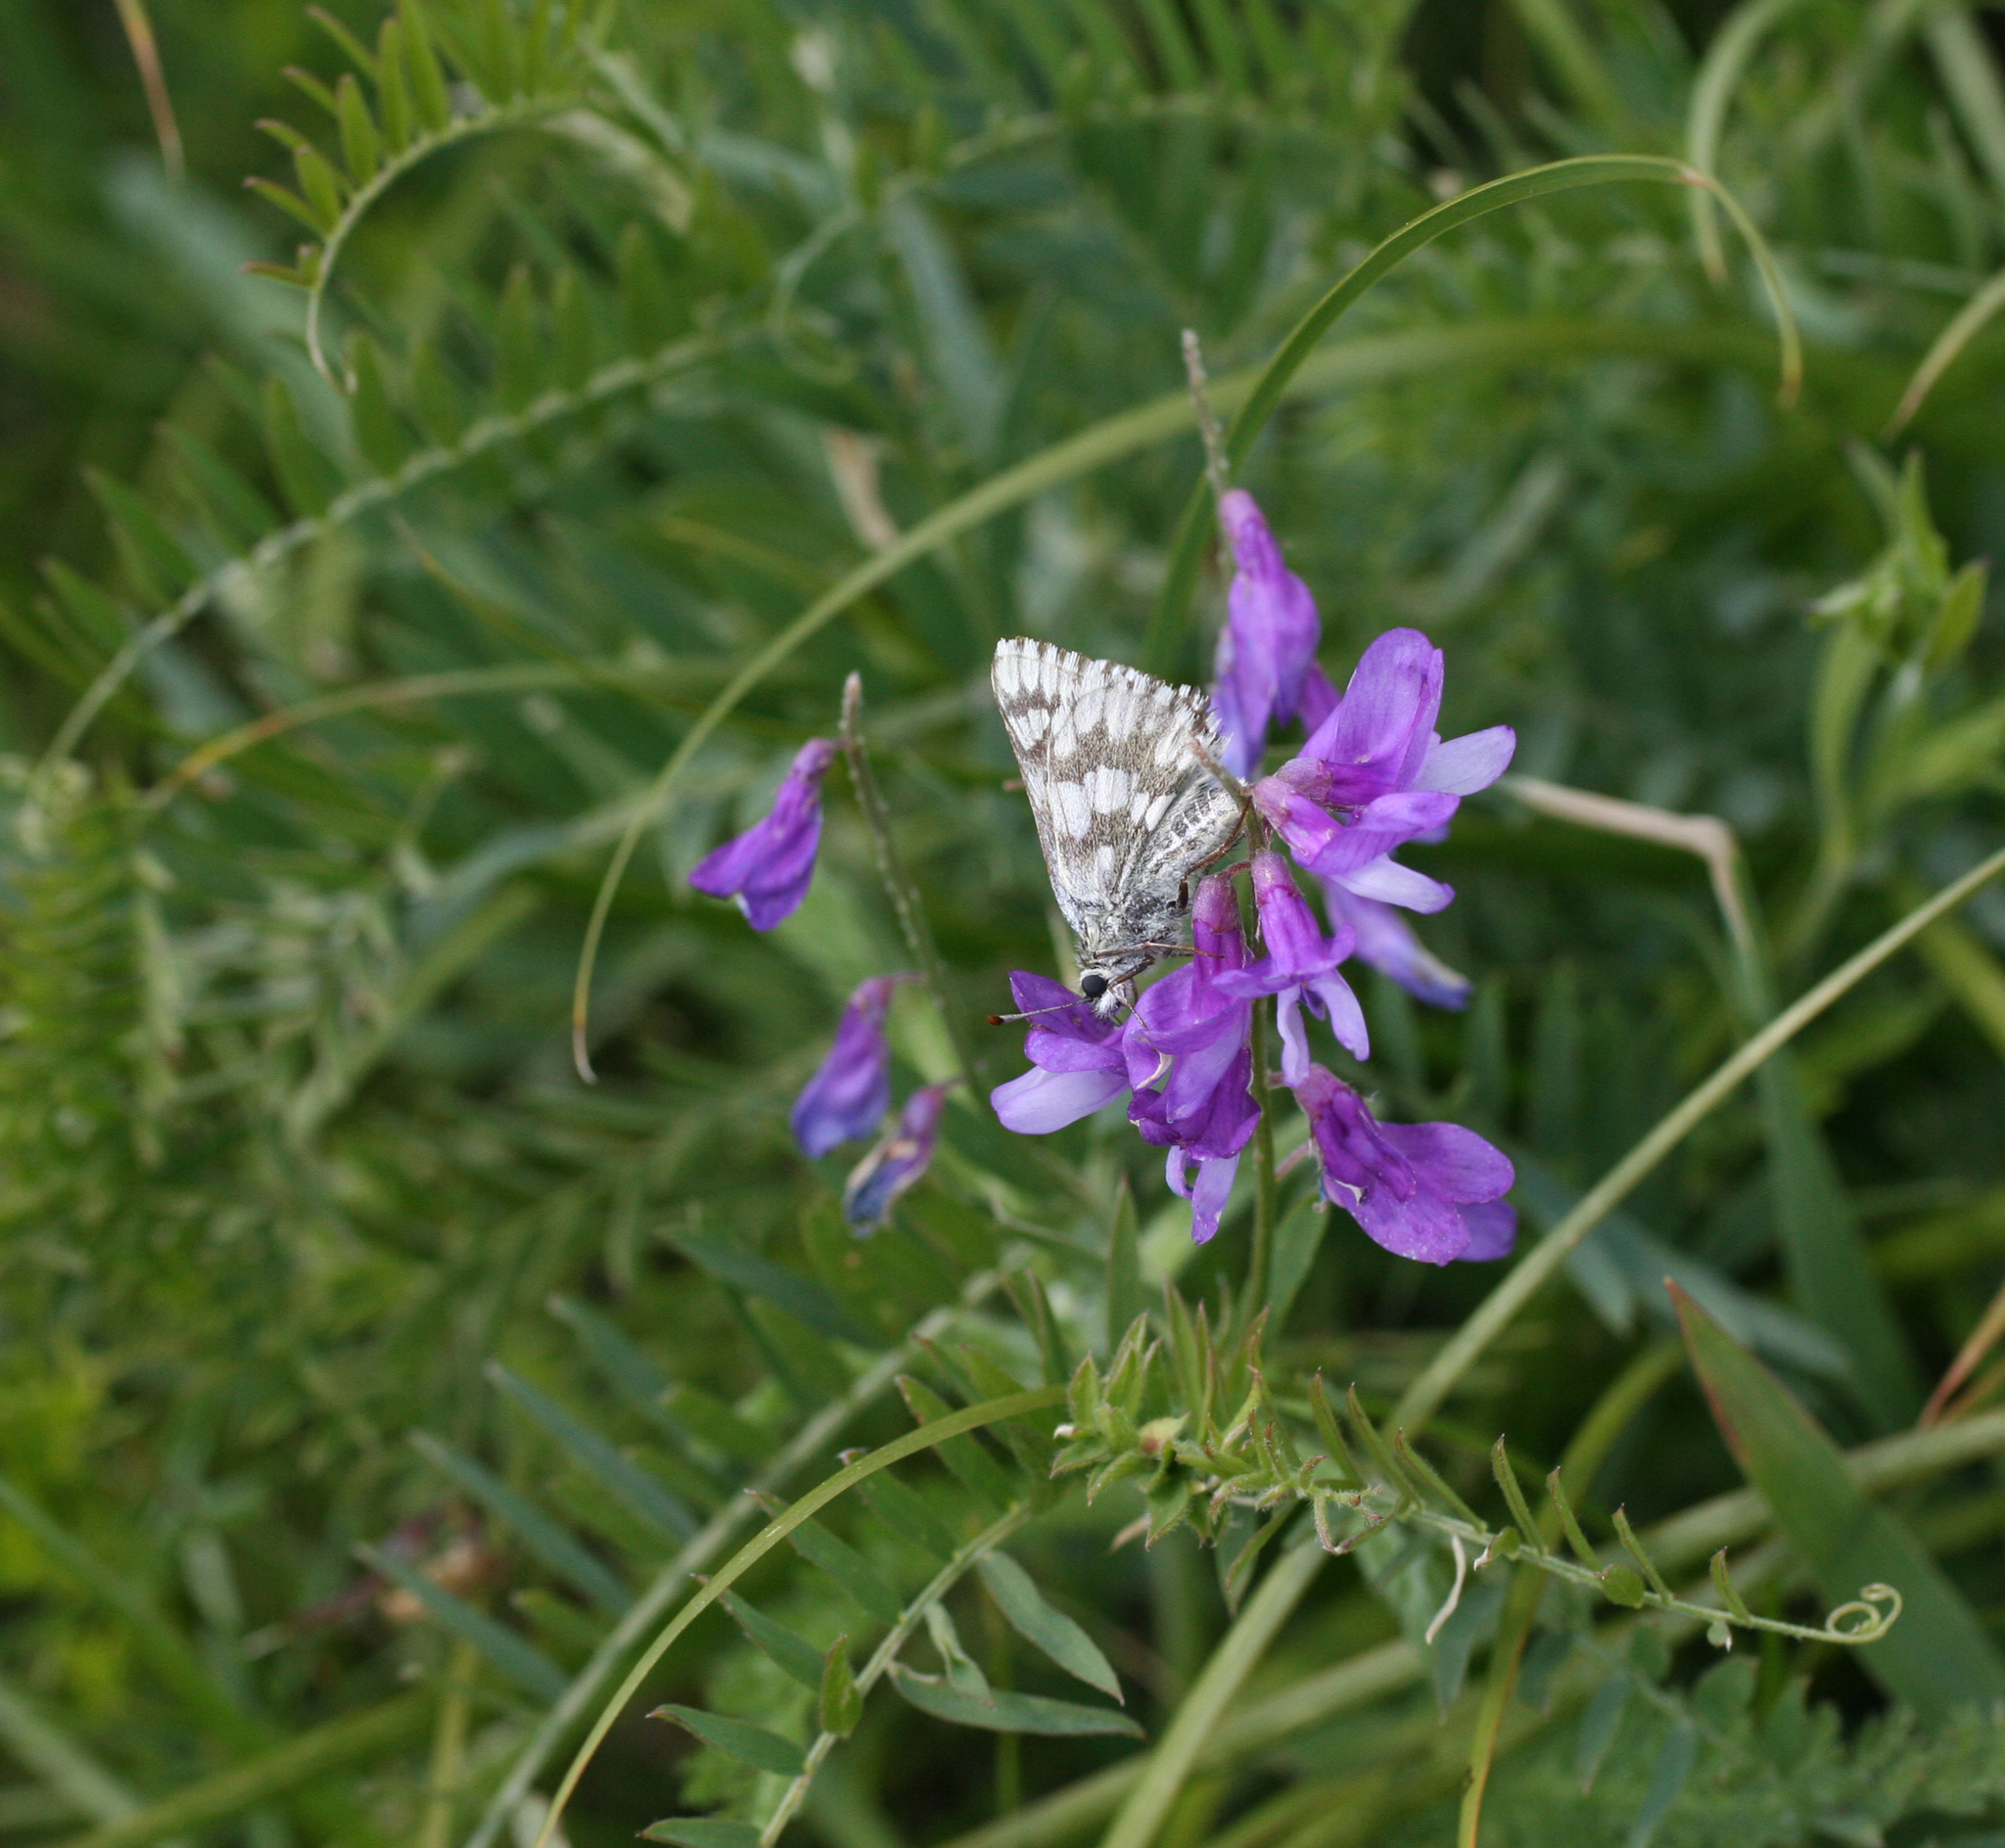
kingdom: Animalia
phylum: Arthropoda
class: Insecta
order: Lepidoptera
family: Hesperiidae
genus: Syrichtus
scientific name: Syrichtus cribrellum
